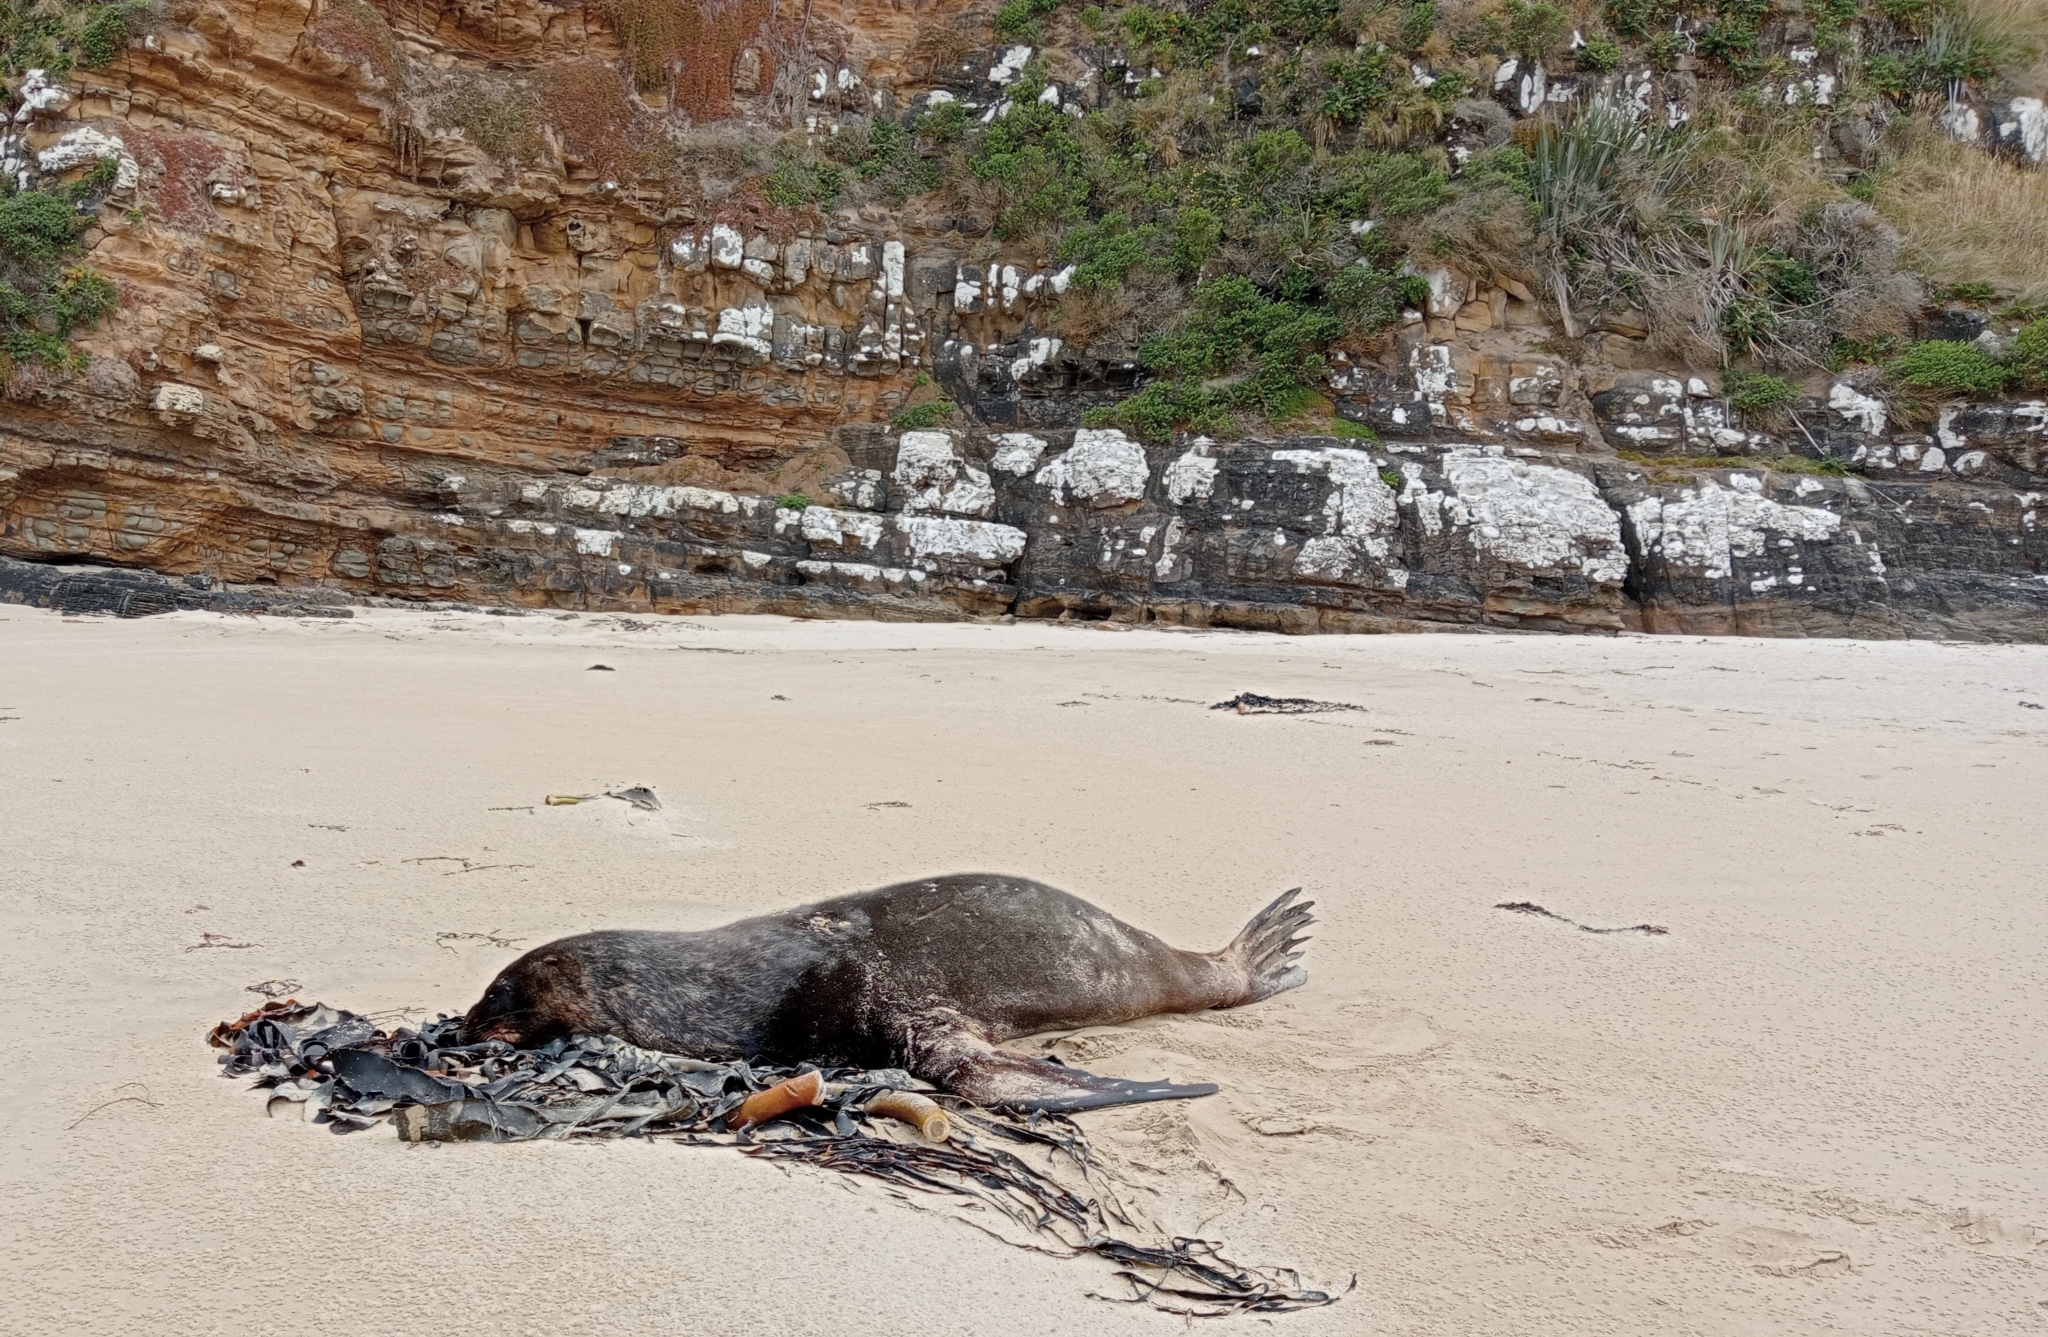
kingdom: Animalia
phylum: Chordata
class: Mammalia
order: Carnivora
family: Otariidae
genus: Phocarctos
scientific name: Phocarctos hookeri
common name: New zealand sea lion
